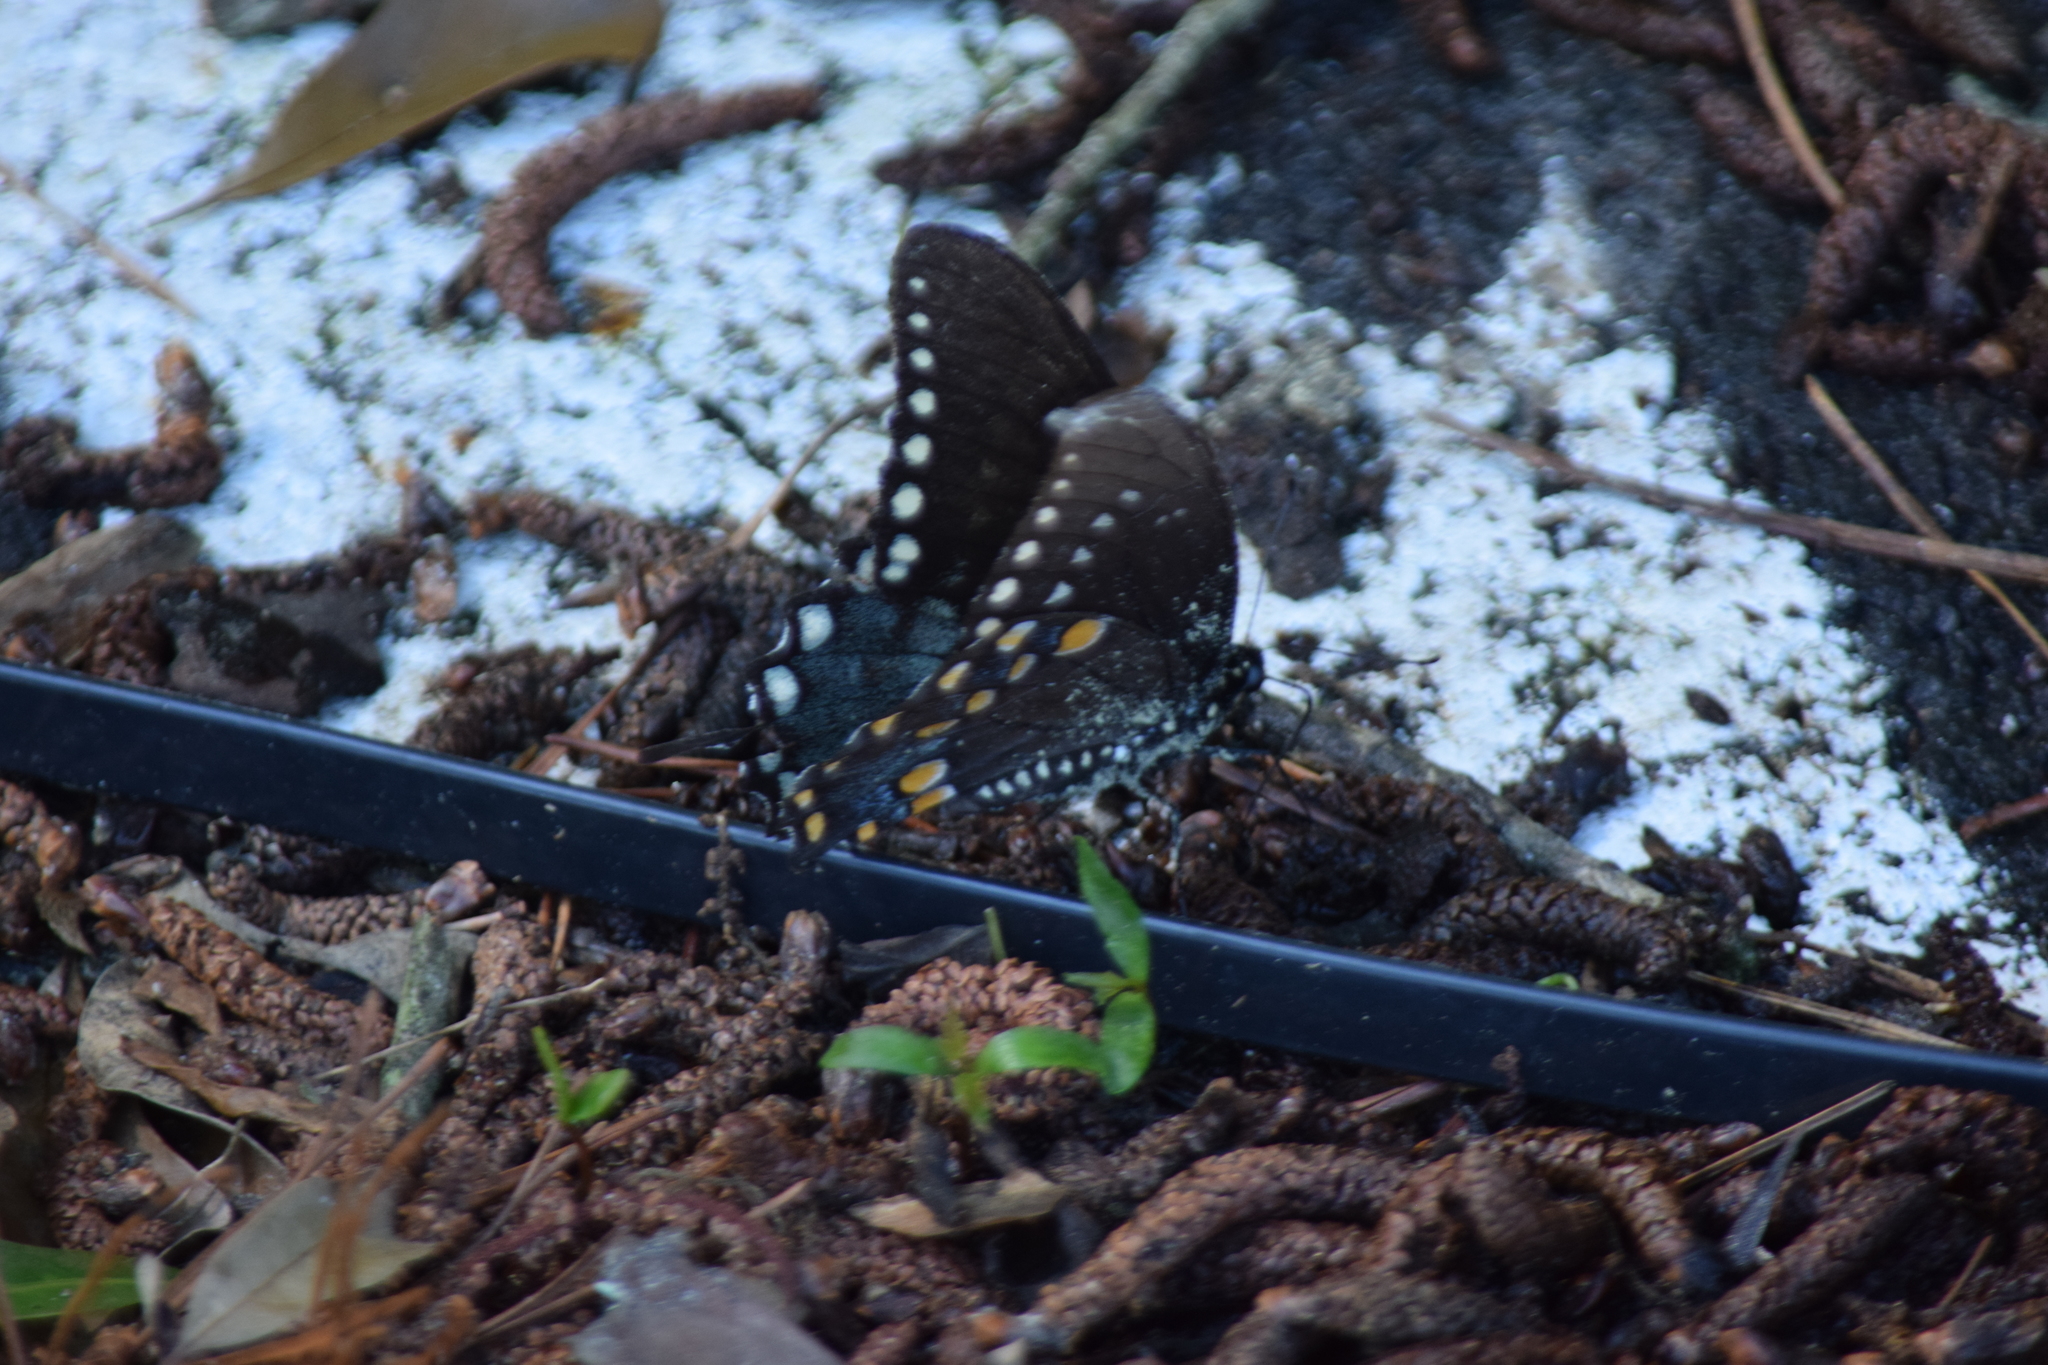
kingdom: Animalia
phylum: Arthropoda
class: Insecta
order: Lepidoptera
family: Papilionidae
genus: Papilio
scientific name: Papilio troilus
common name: Spicebush swallowtail
